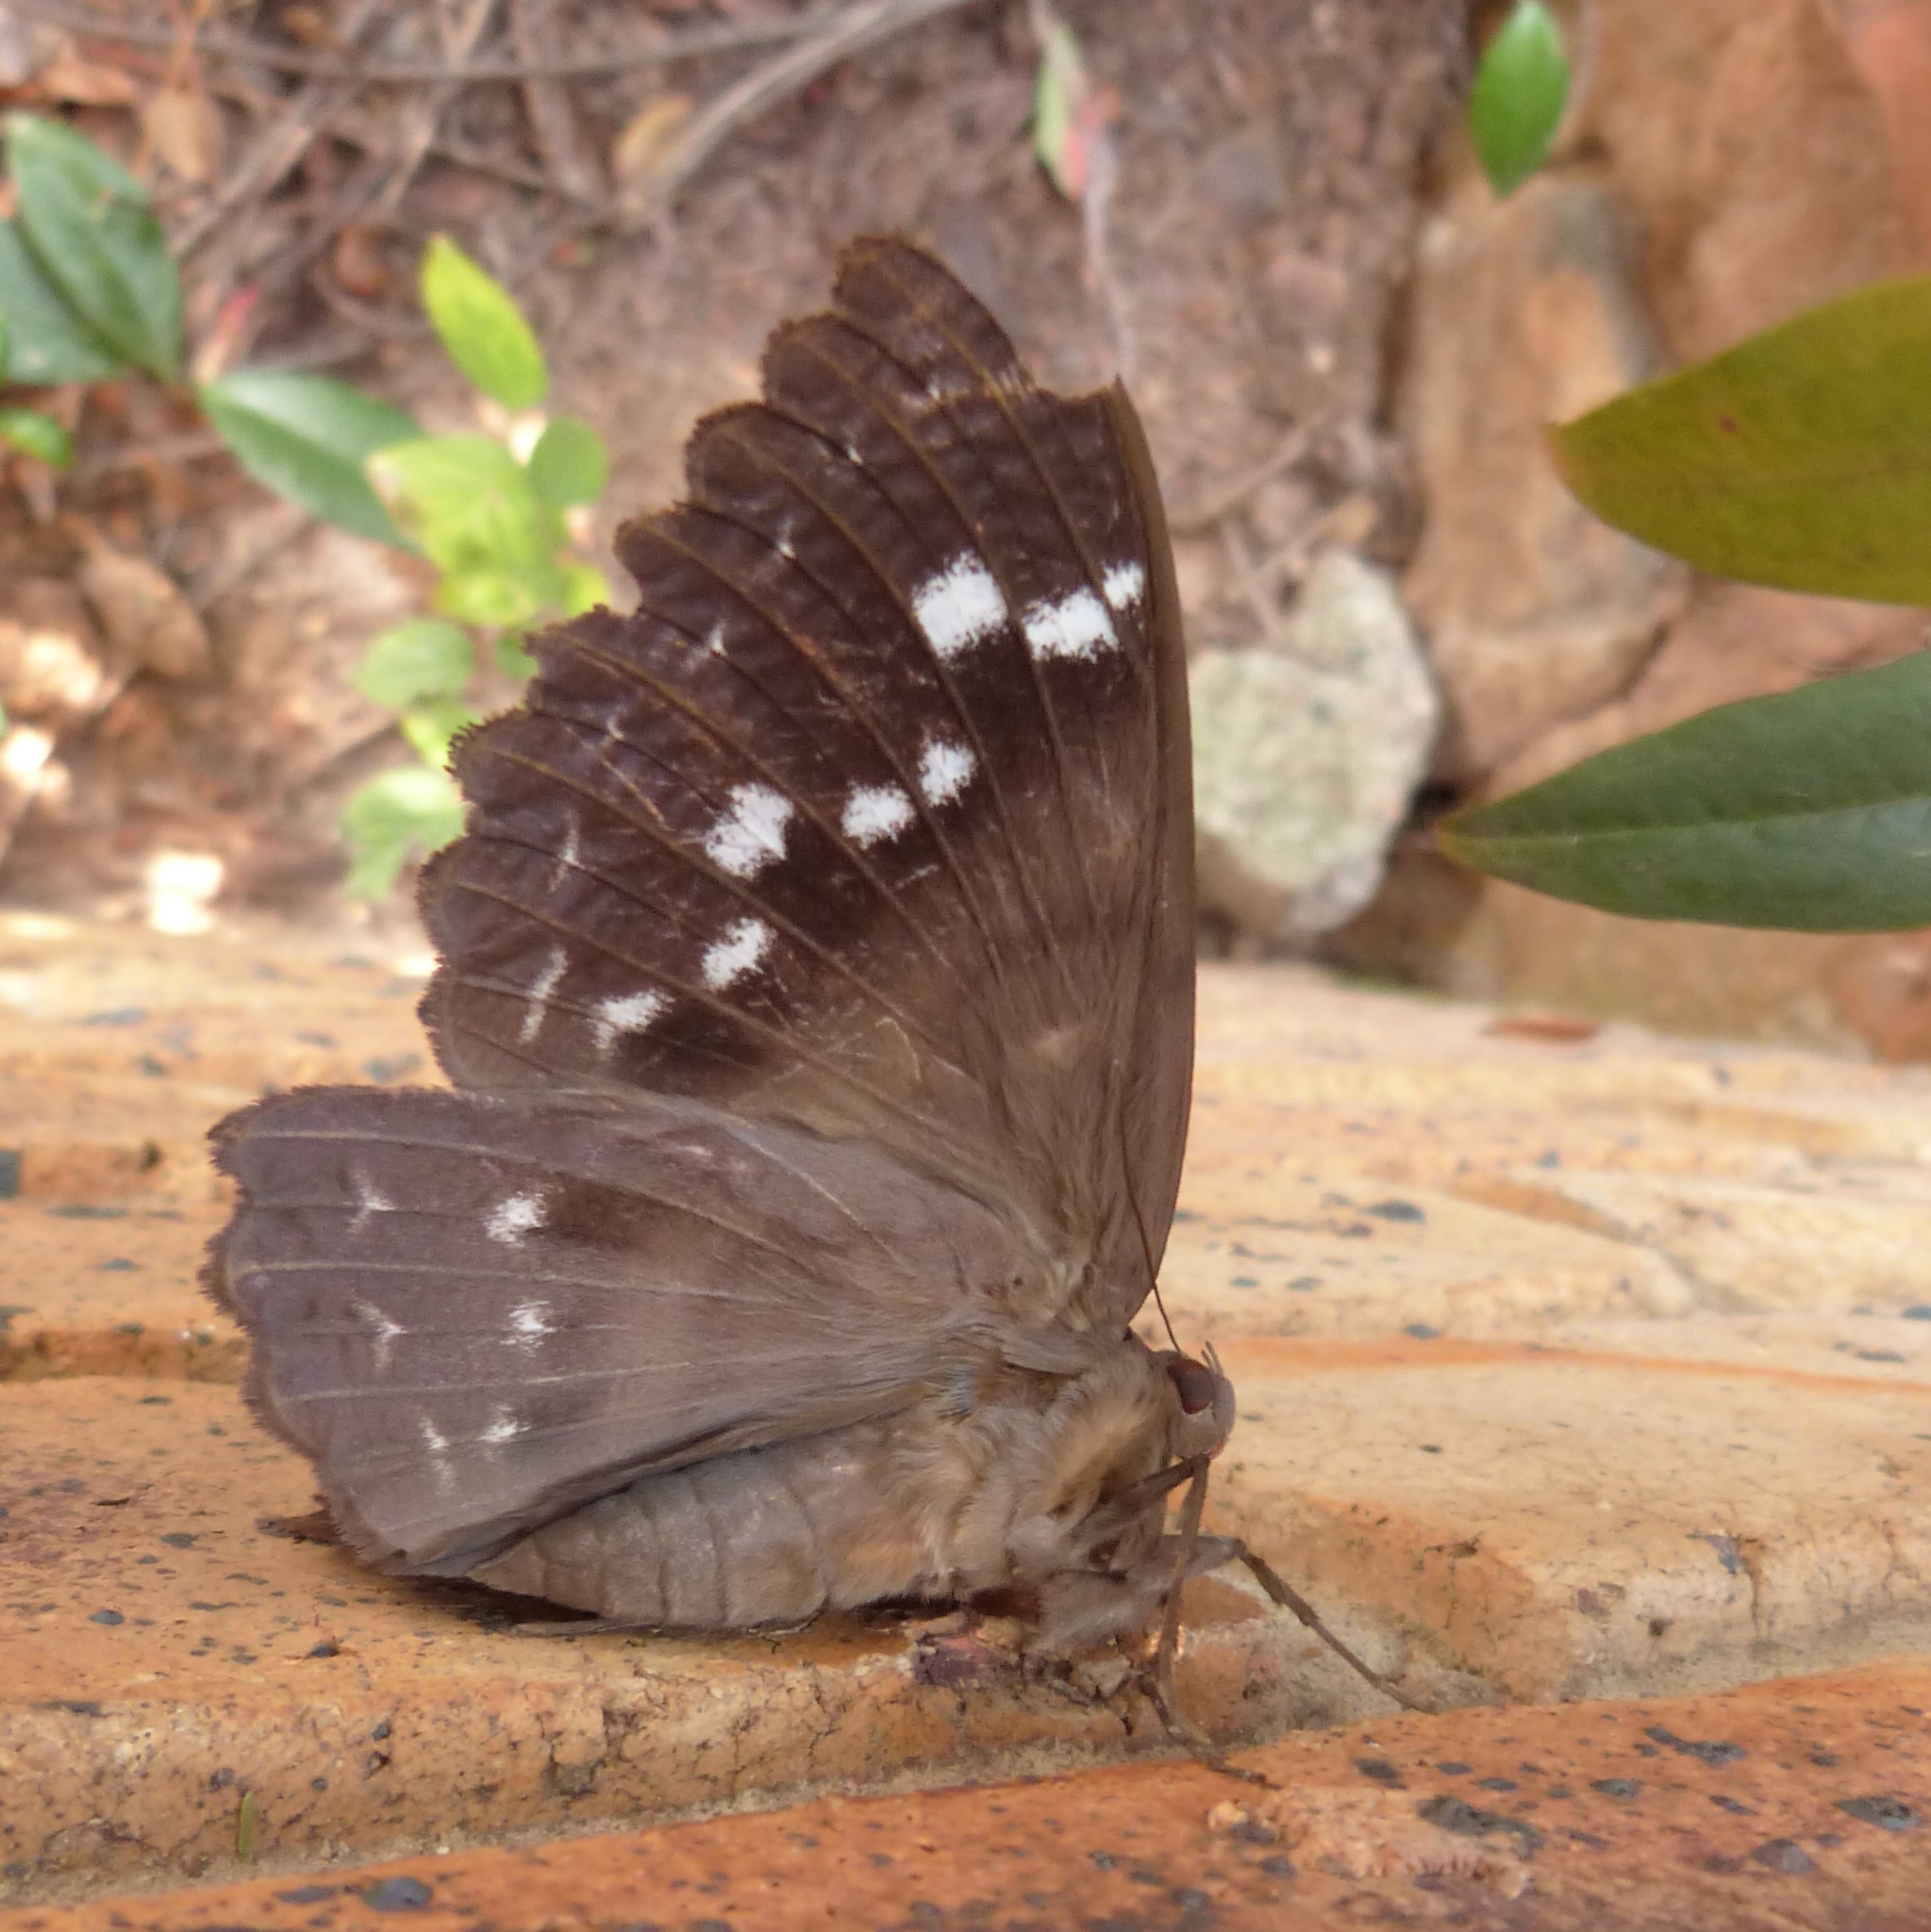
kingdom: Animalia
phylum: Arthropoda
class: Insecta
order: Lepidoptera
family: Erebidae
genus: Erebus
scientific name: Erebus walkeri
